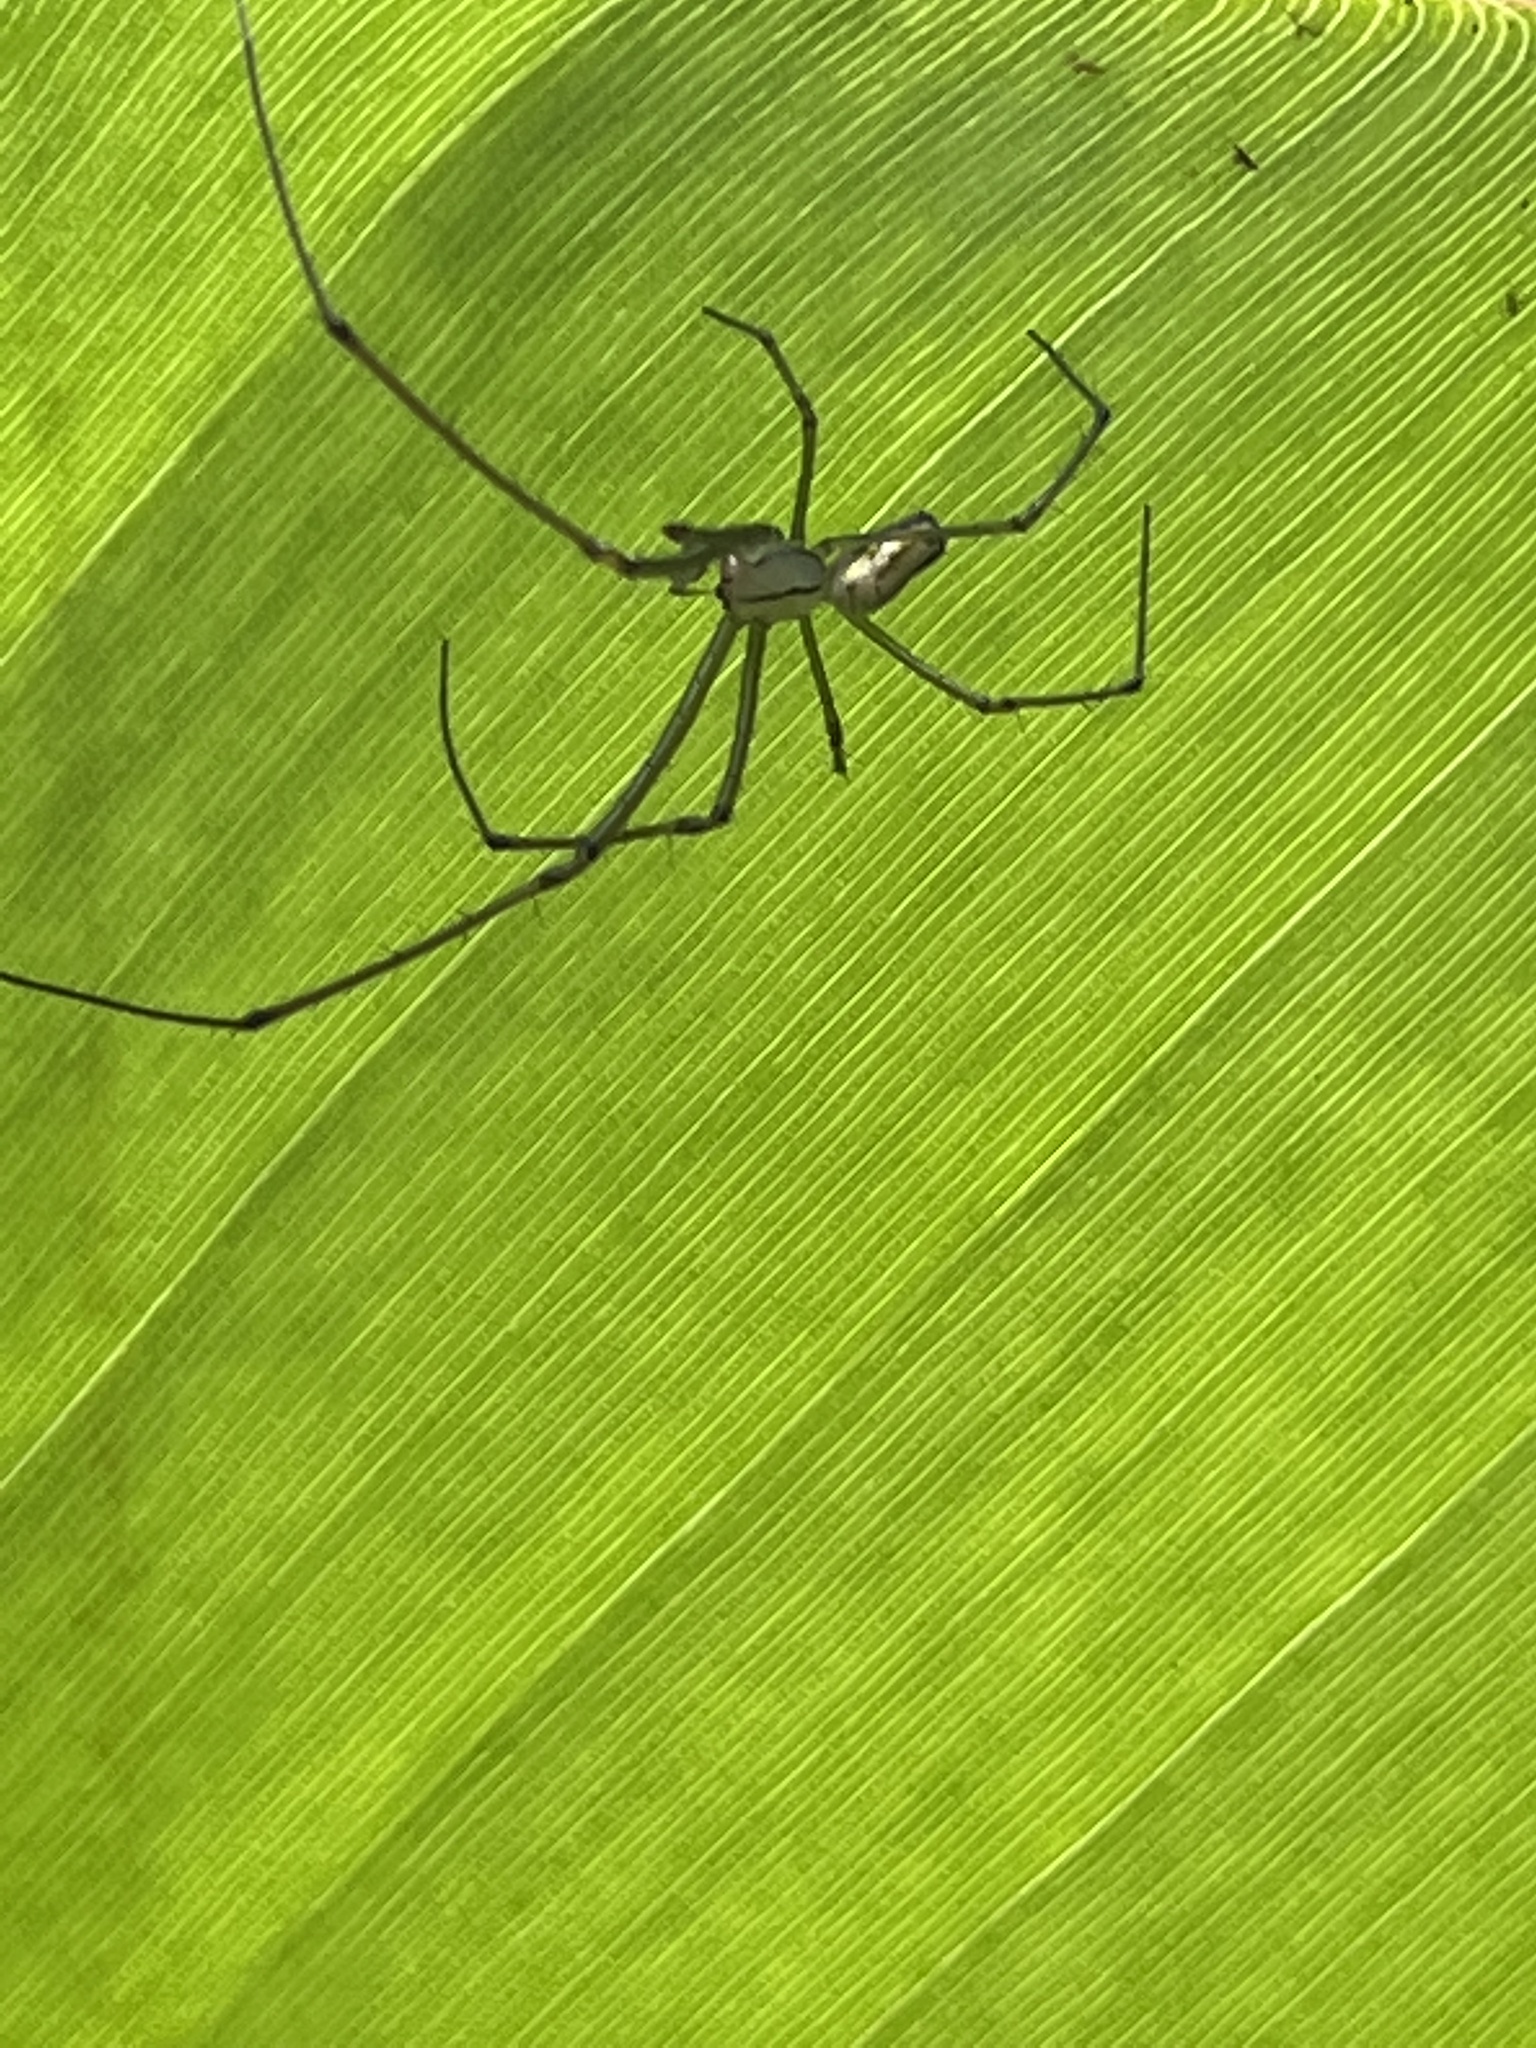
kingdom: Animalia
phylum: Arthropoda
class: Arachnida
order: Araneae
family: Tetragnathidae
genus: Leucauge
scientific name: Leucauge venusta
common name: Longjawed orb weavers
